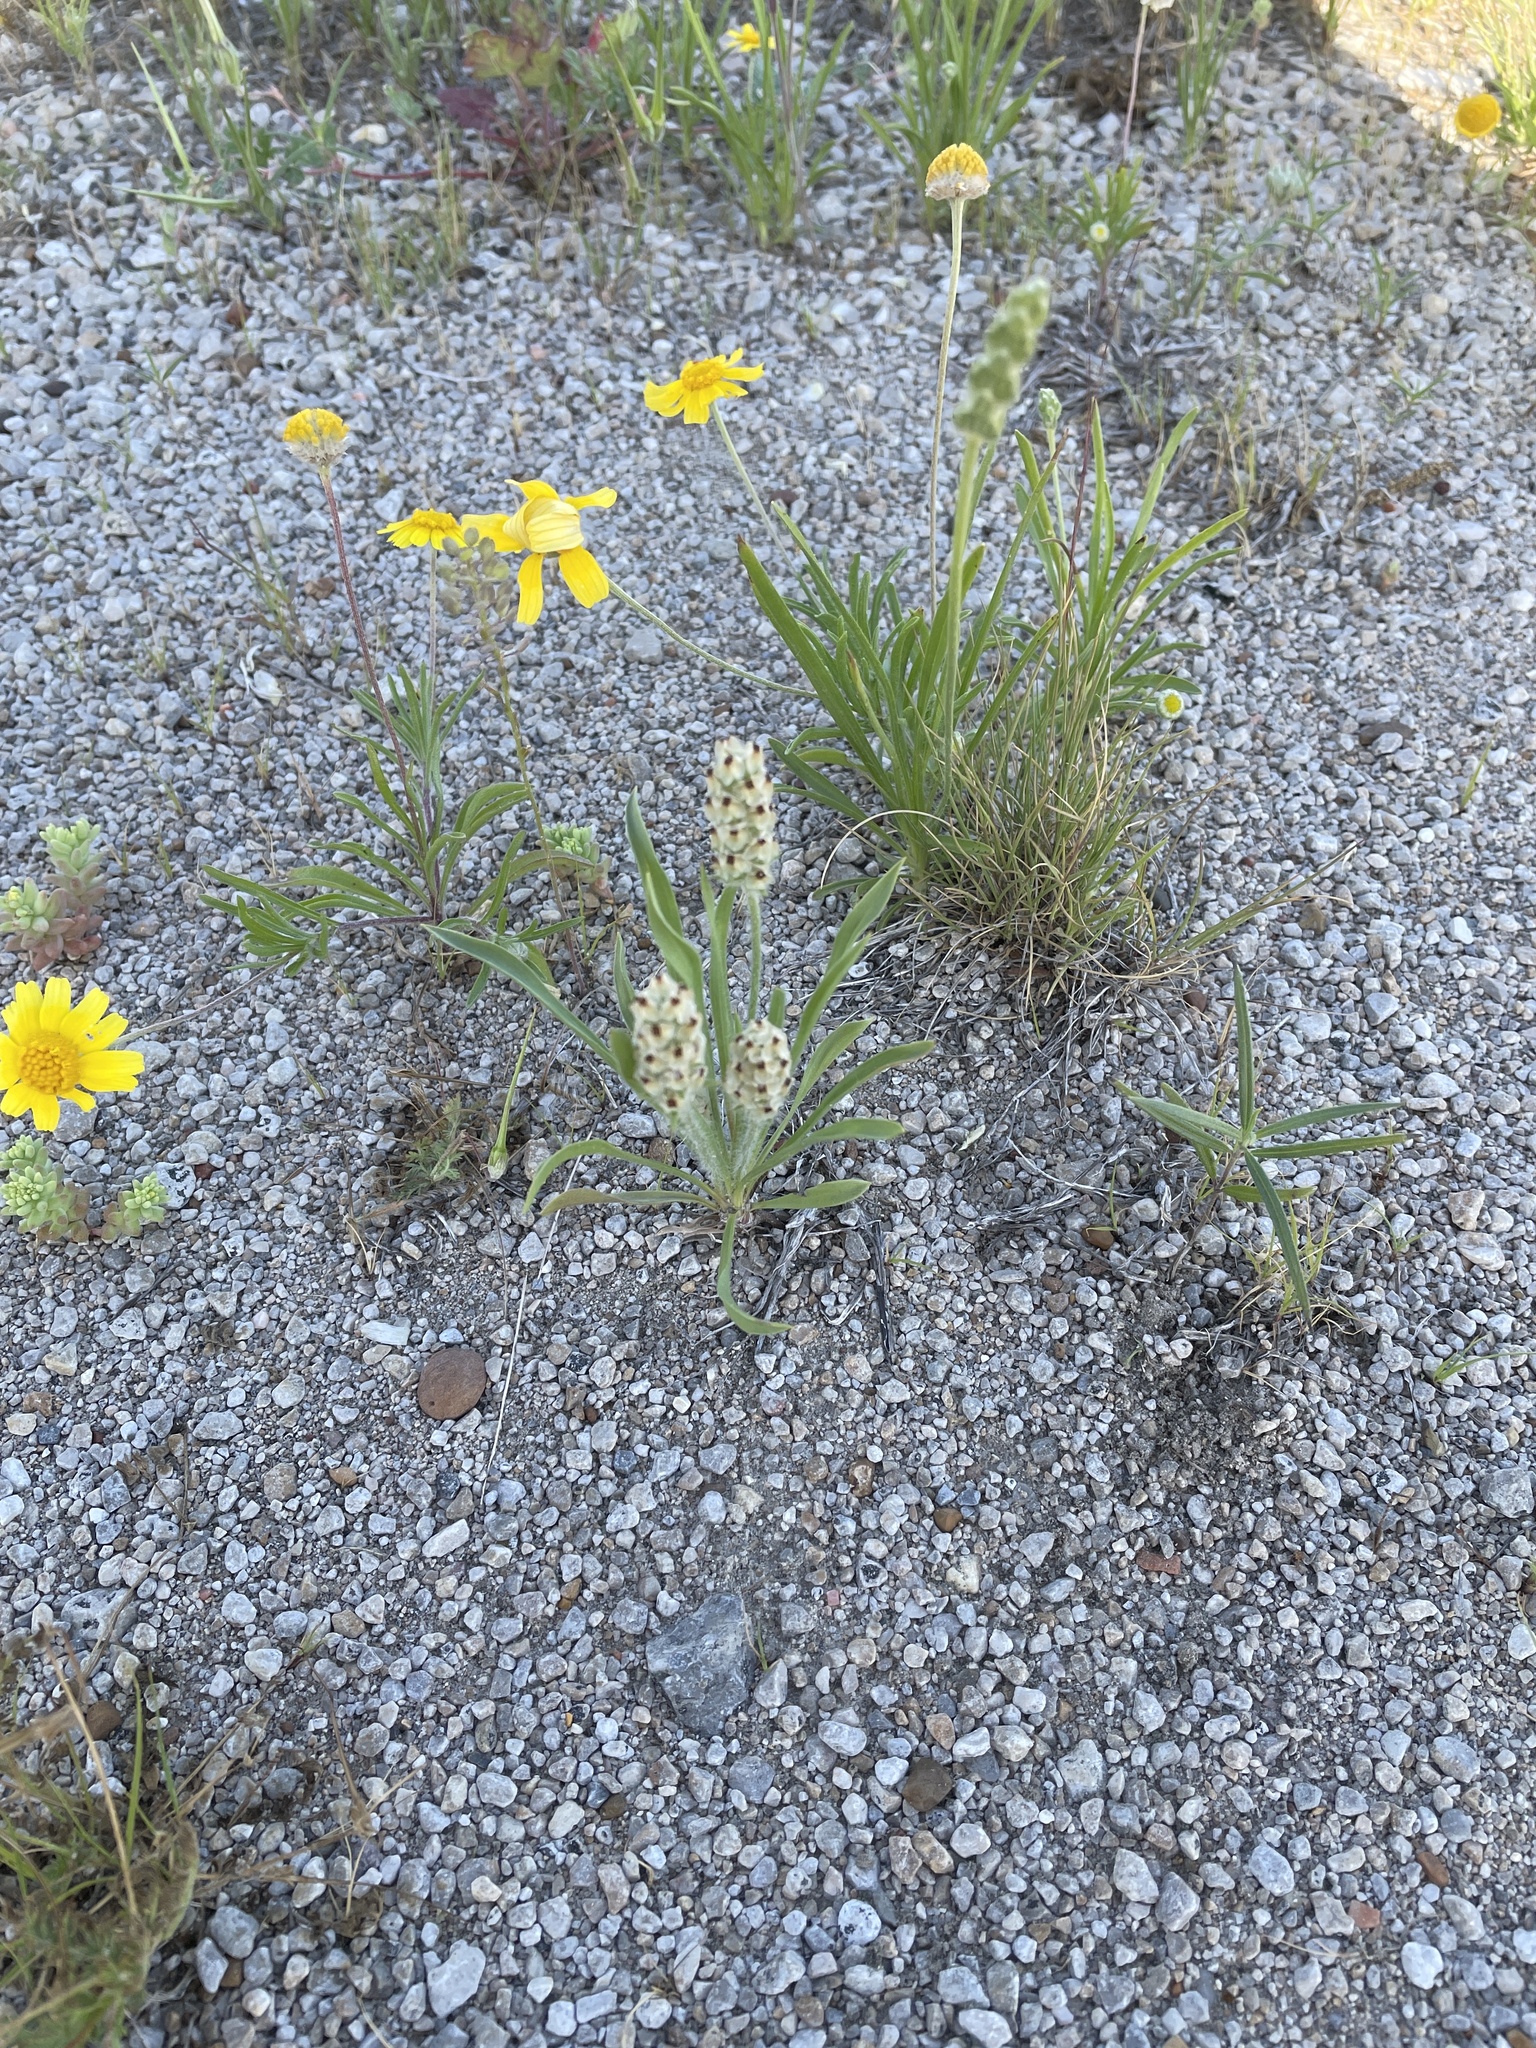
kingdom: Plantae
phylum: Tracheophyta
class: Magnoliopsida
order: Lamiales
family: Plantaginaceae
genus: Plantago
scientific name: Plantago helleri
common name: Heller's plantain
